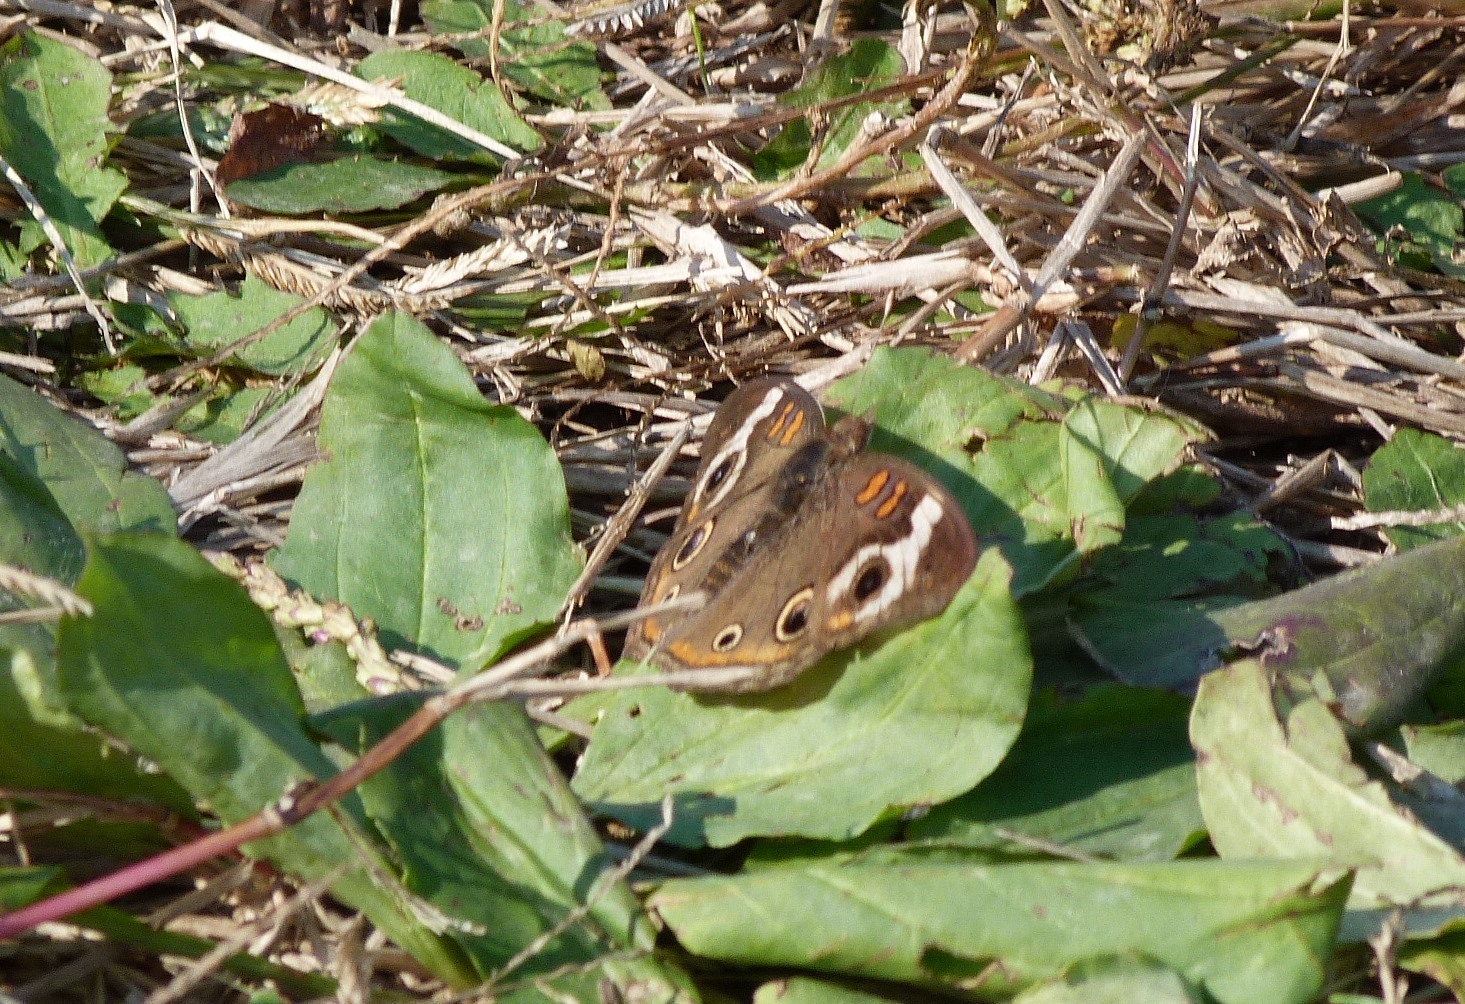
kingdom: Animalia
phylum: Arthropoda
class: Insecta
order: Lepidoptera
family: Nymphalidae
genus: Junonia
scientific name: Junonia coenia
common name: Common buckeye
